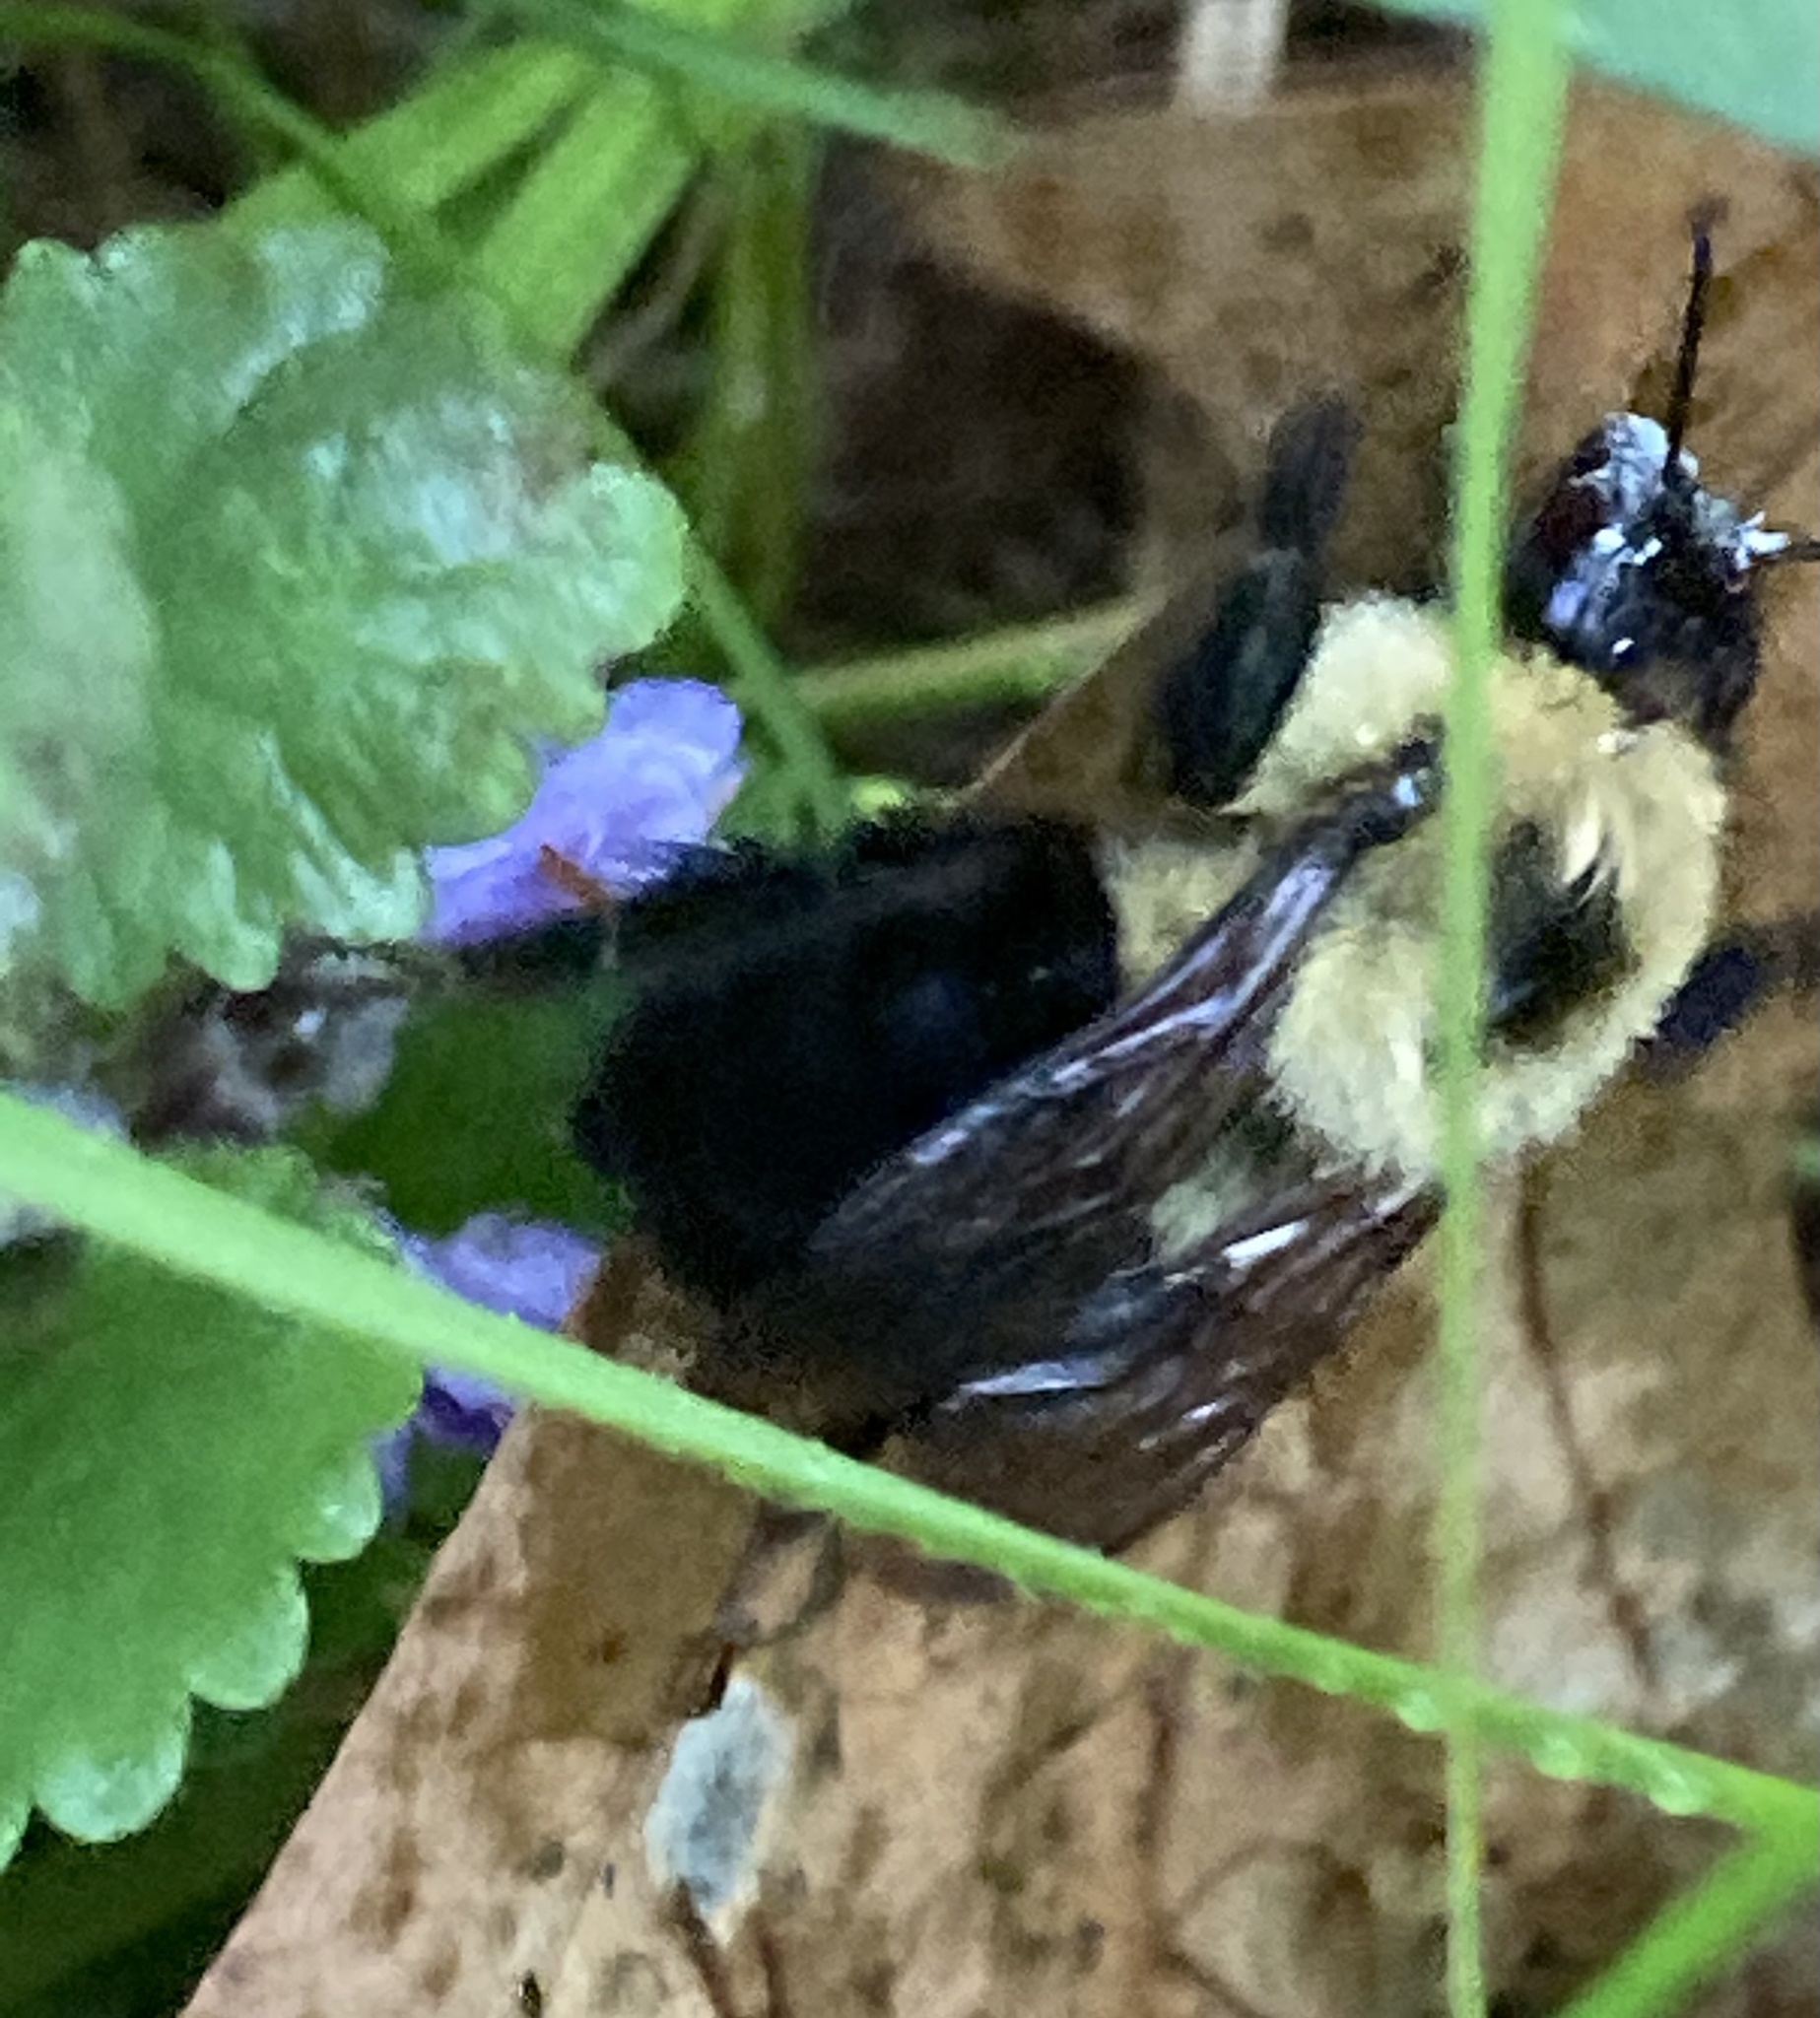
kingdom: Animalia
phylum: Arthropoda
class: Insecta
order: Hymenoptera
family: Apidae
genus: Bombus
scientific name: Bombus bimaculatus
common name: Two-spotted bumble bee
